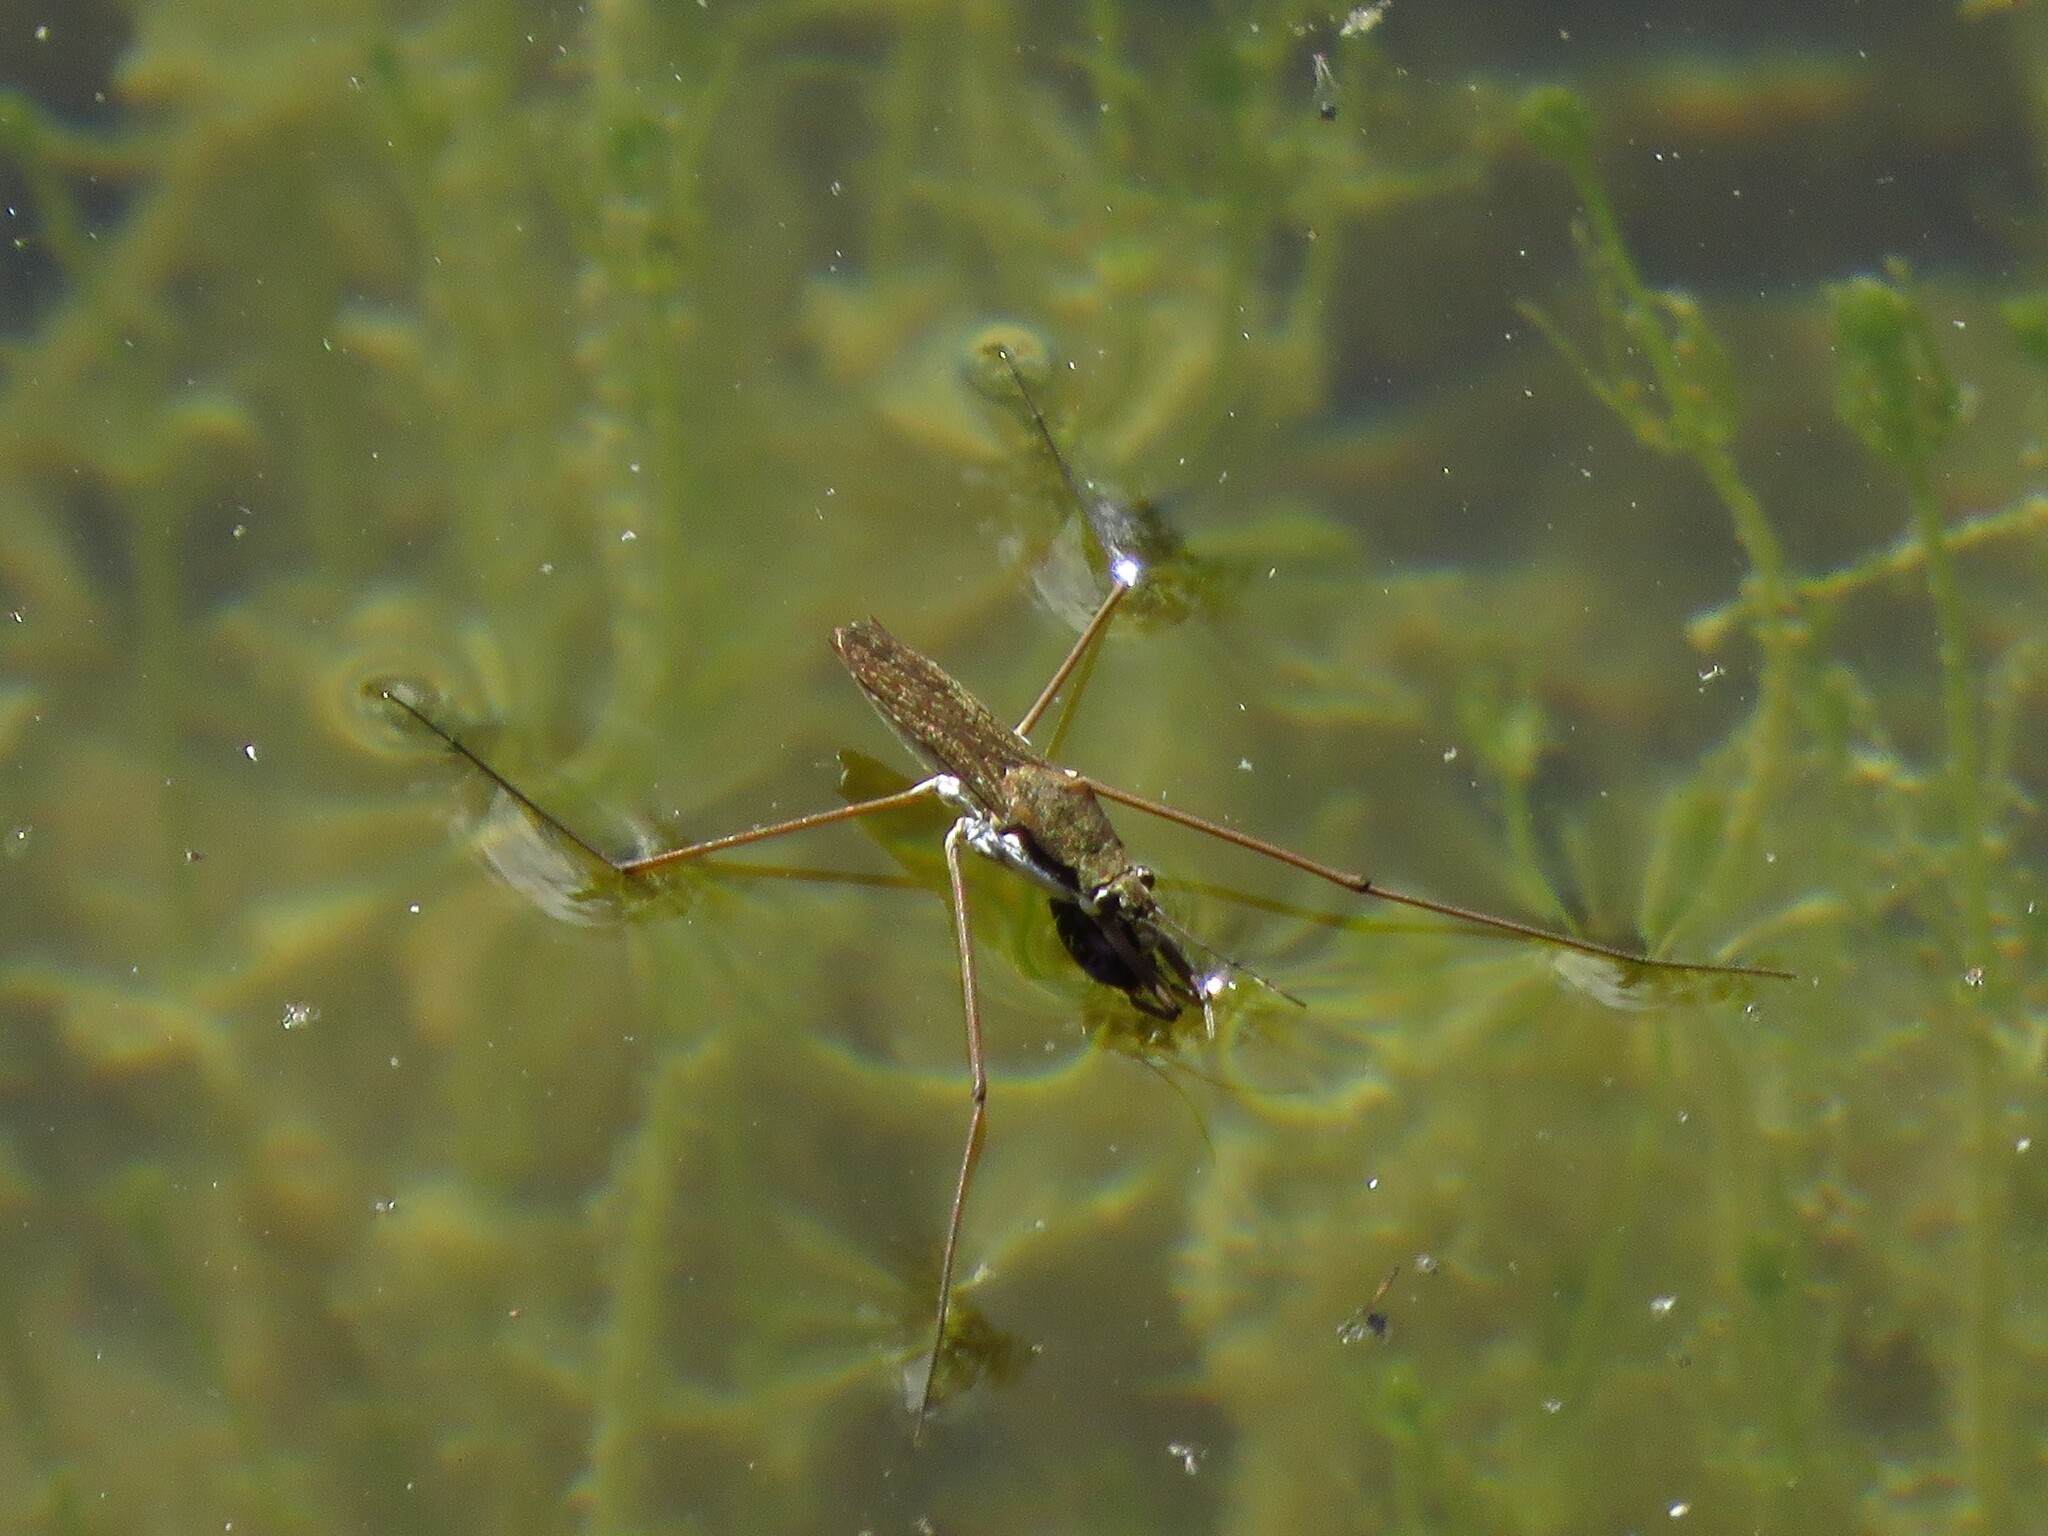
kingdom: Animalia
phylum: Arthropoda
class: Insecta
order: Hemiptera
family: Gerridae
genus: Aquarius
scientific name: Aquarius remigis
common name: Common water strider
